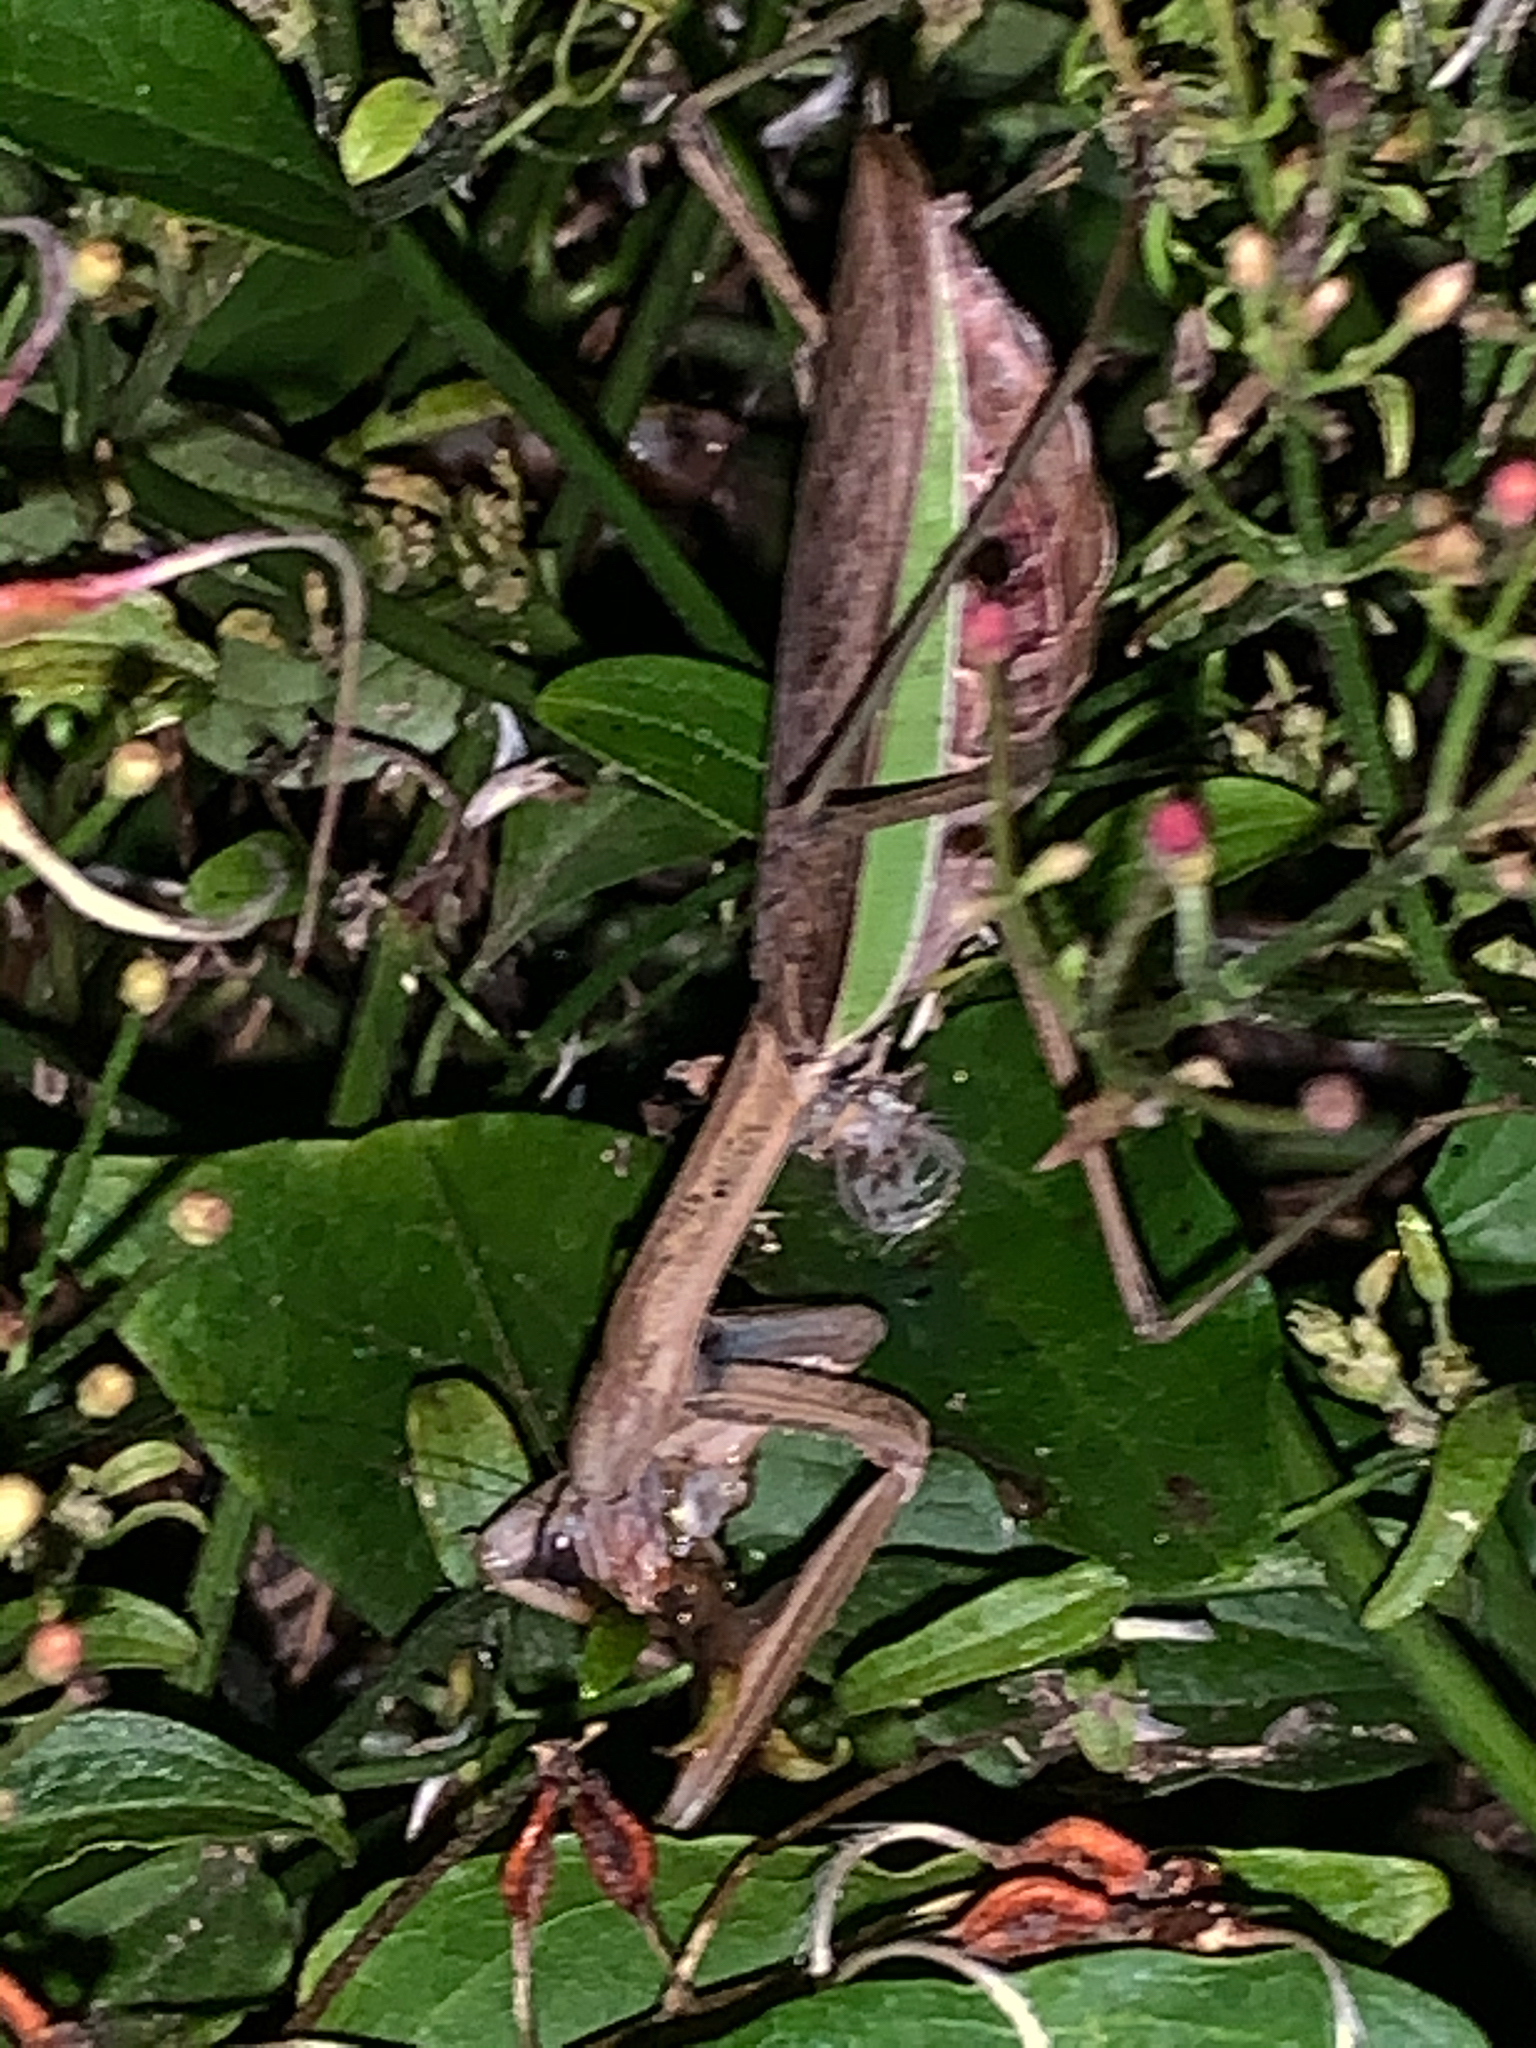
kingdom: Animalia
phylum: Arthropoda
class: Insecta
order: Mantodea
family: Mantidae
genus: Tenodera
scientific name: Tenodera sinensis
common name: Chinese mantis
